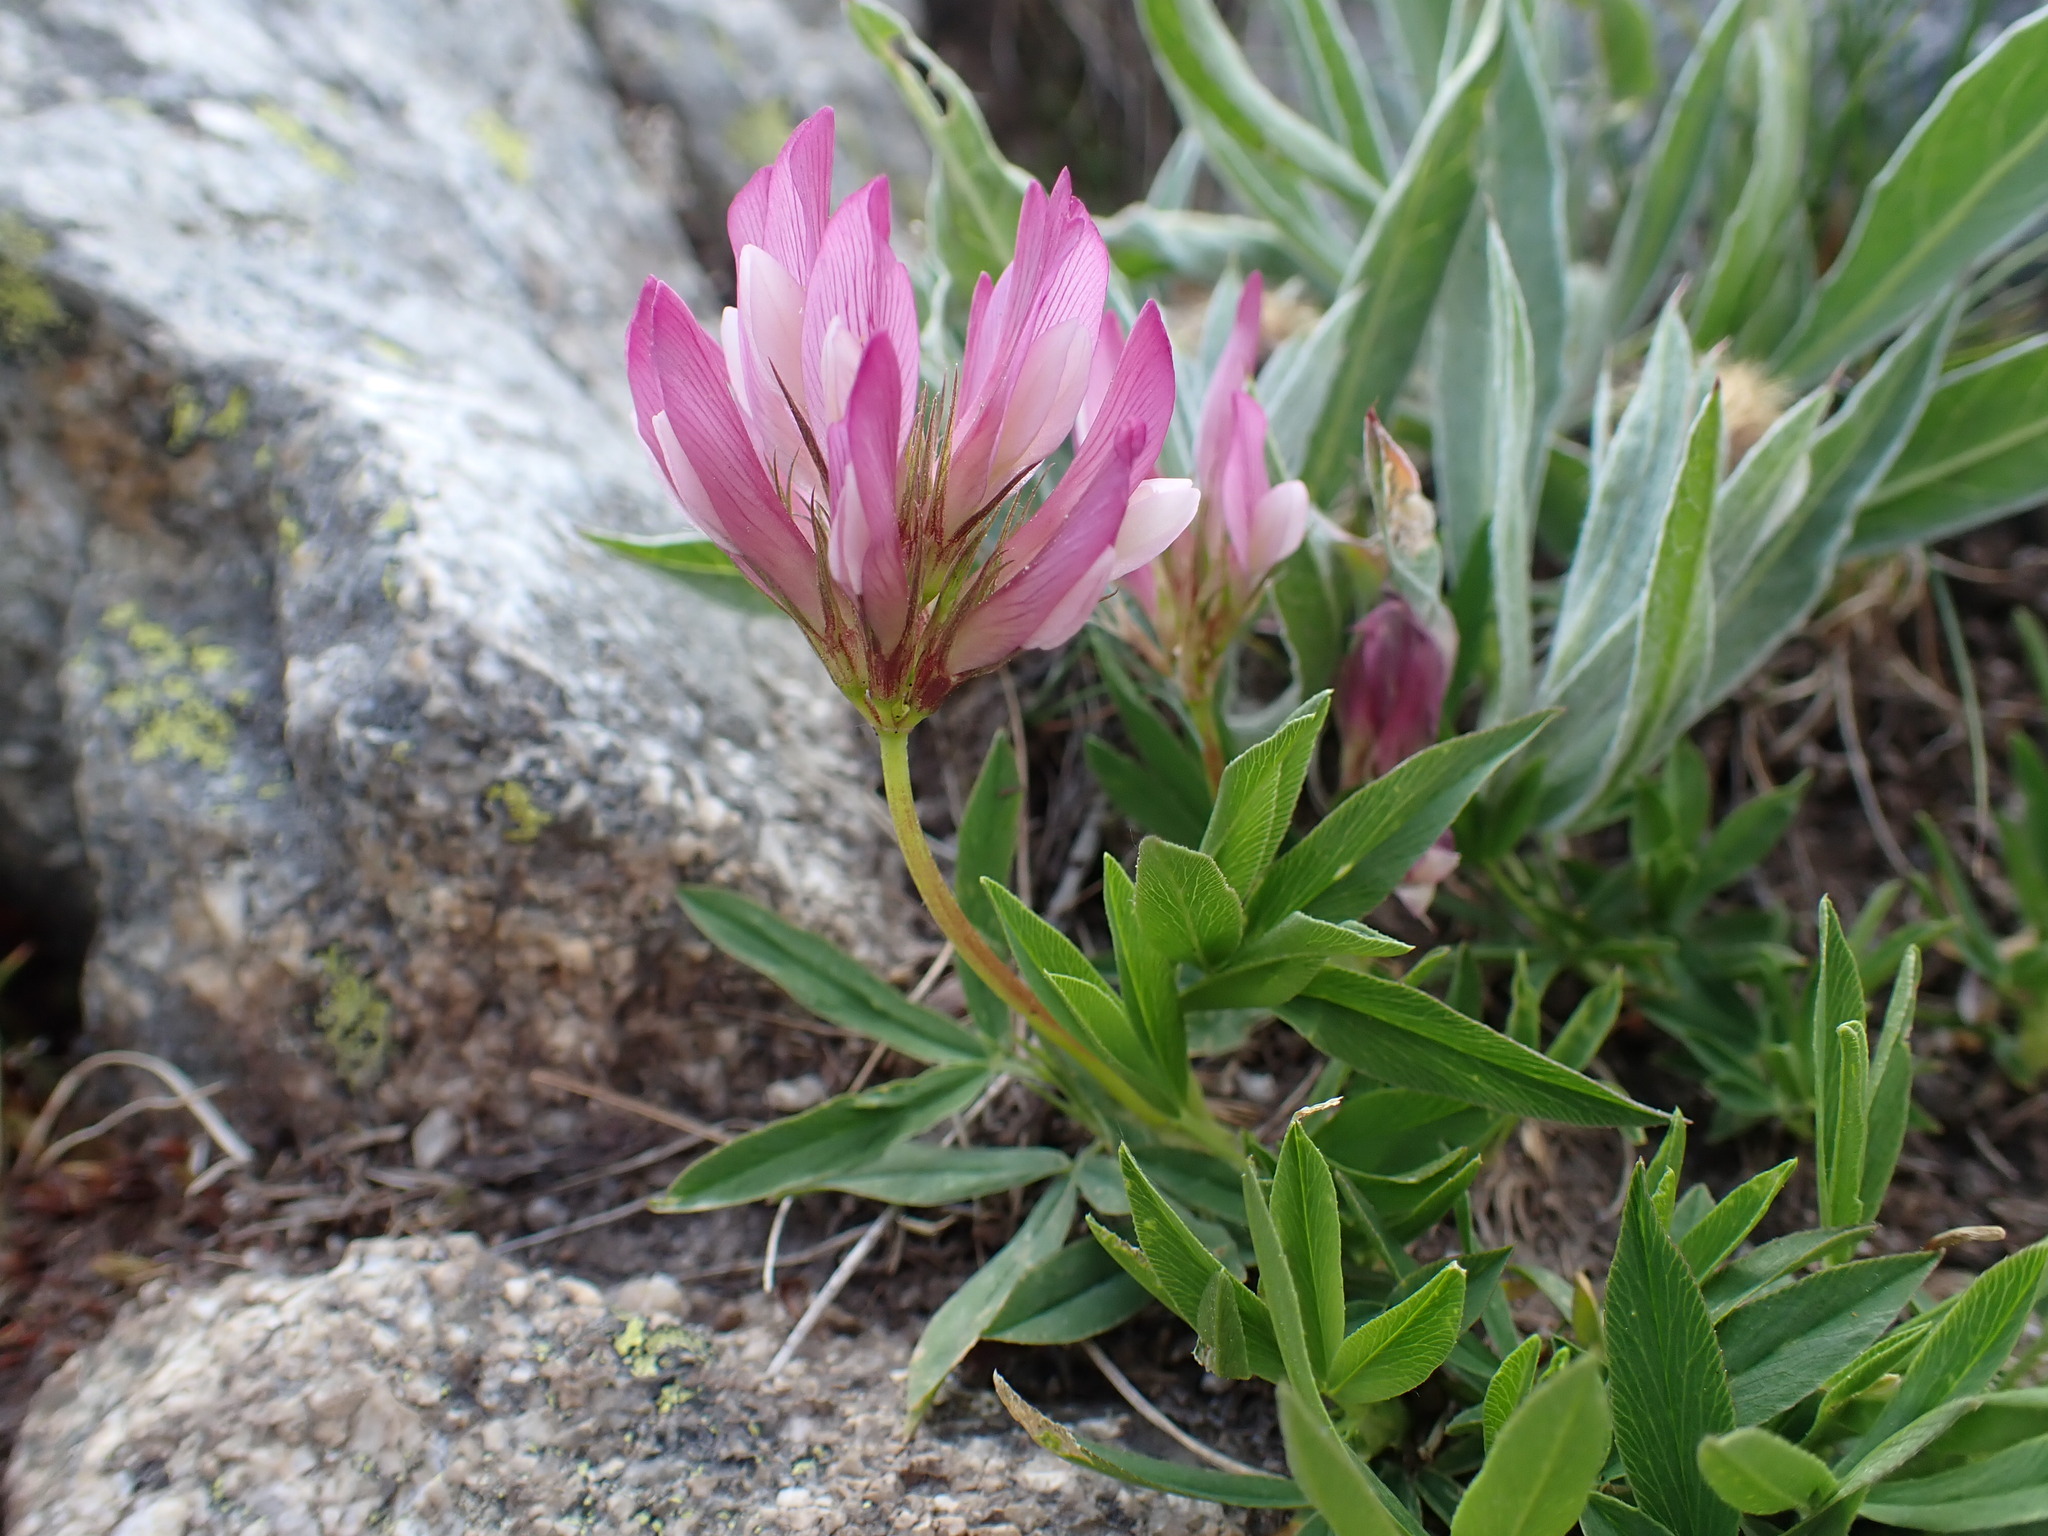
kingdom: Plantae
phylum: Tracheophyta
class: Magnoliopsida
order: Fabales
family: Fabaceae
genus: Trifolium
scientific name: Trifolium alpinum
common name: Alpine clover
